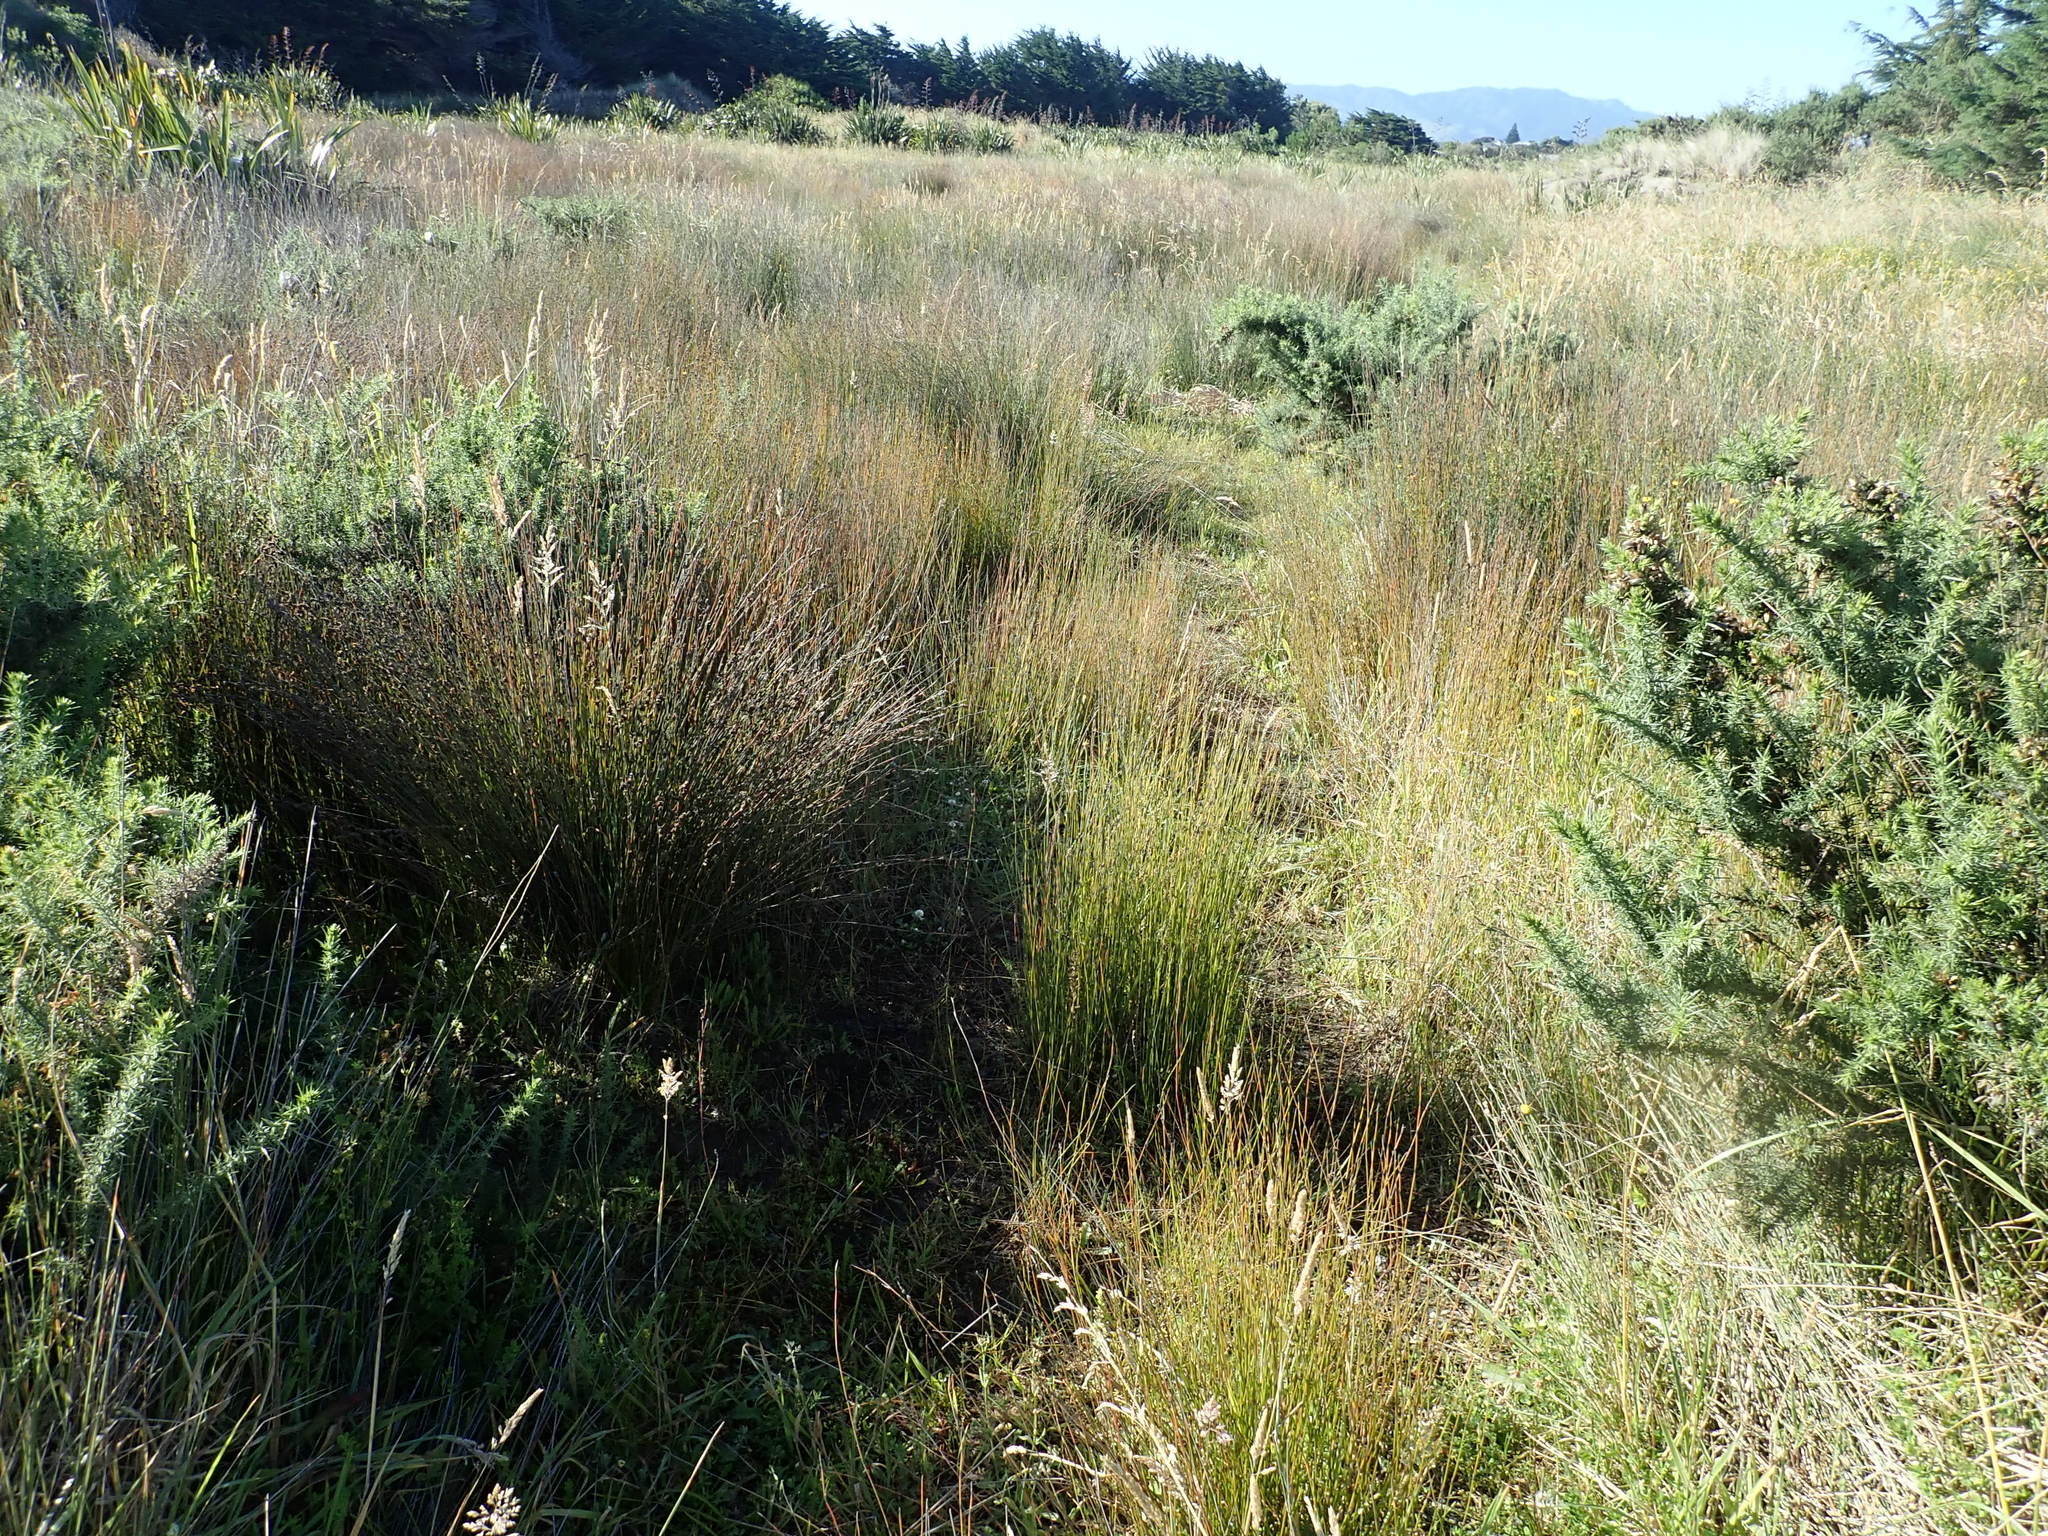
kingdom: Plantae
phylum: Tracheophyta
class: Liliopsida
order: Poales
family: Restionaceae
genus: Apodasmia
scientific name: Apodasmia similis
